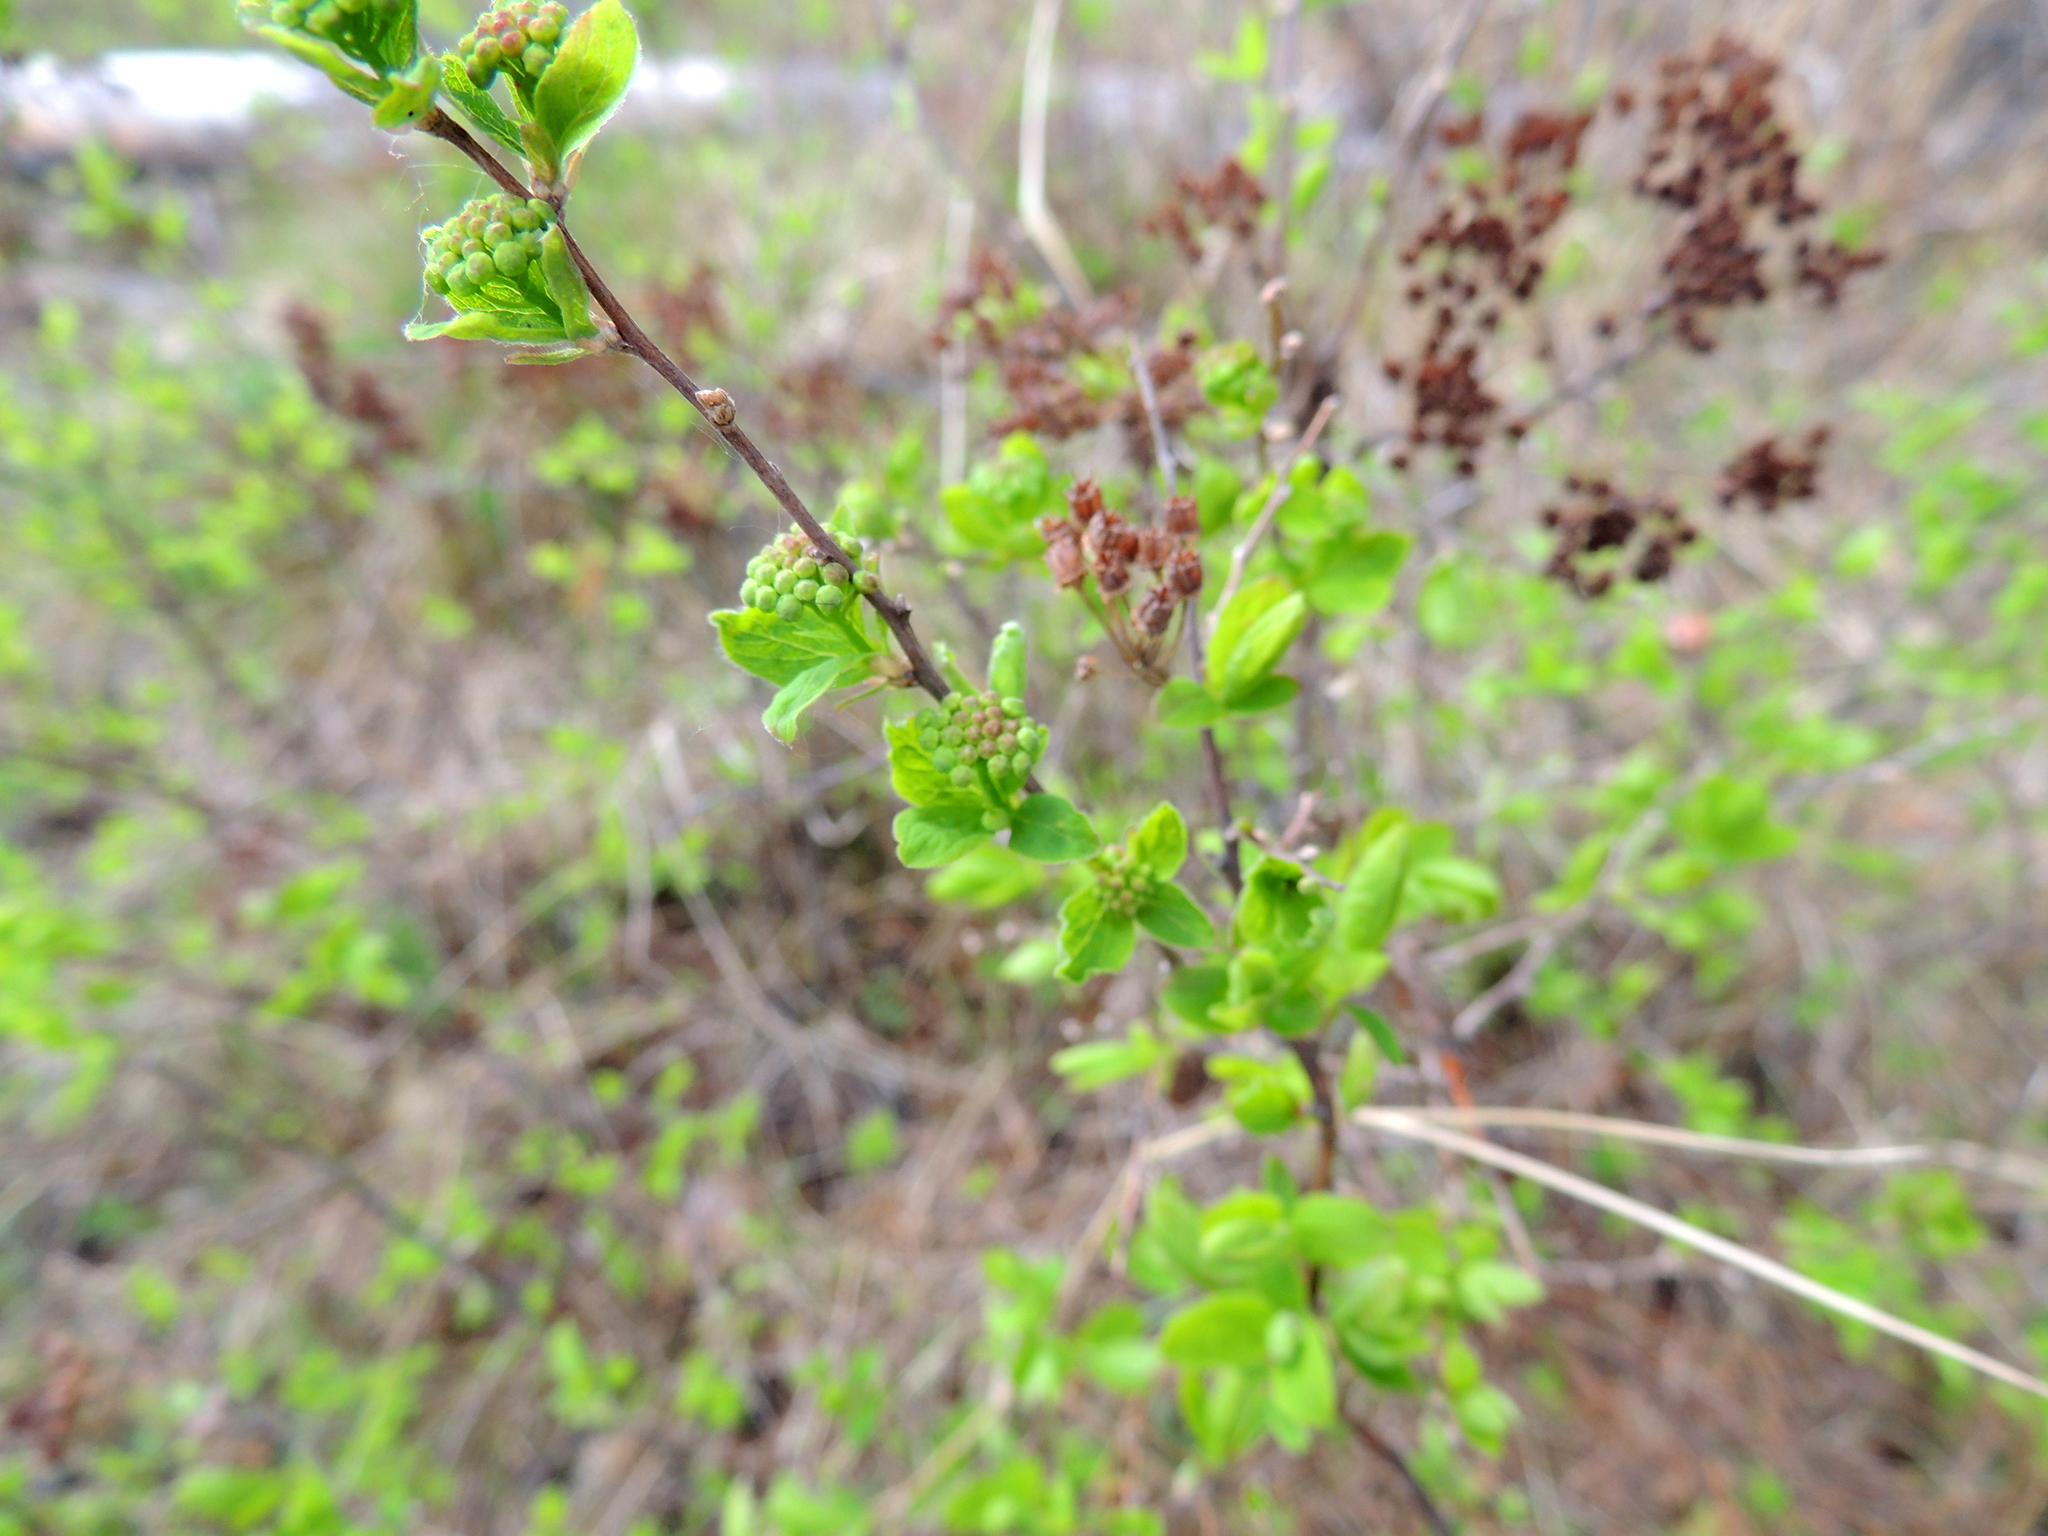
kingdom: Plantae
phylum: Tracheophyta
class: Magnoliopsida
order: Rosales
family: Rosaceae
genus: Spiraea
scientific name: Spiraea media
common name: Russian spiraea
